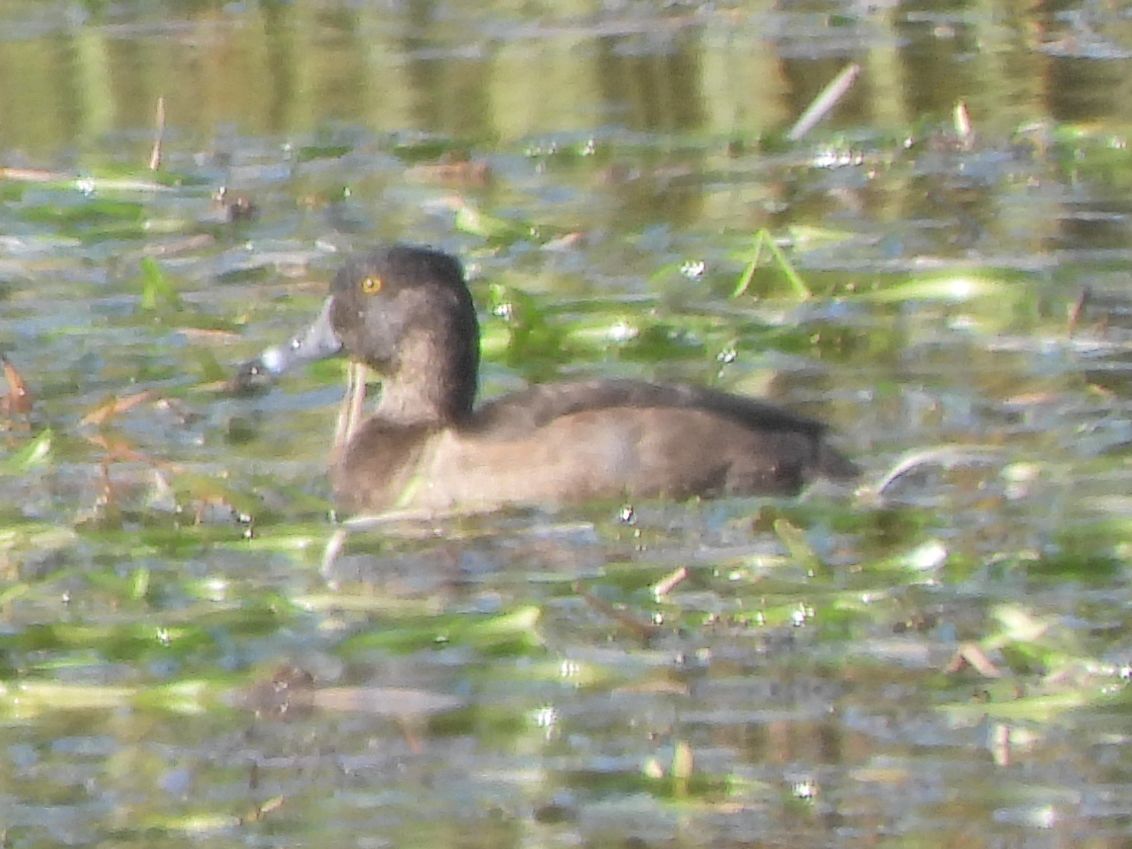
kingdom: Animalia
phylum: Chordata
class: Aves
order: Anseriformes
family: Anatidae
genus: Aythya
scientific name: Aythya collaris
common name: Ring-necked duck
